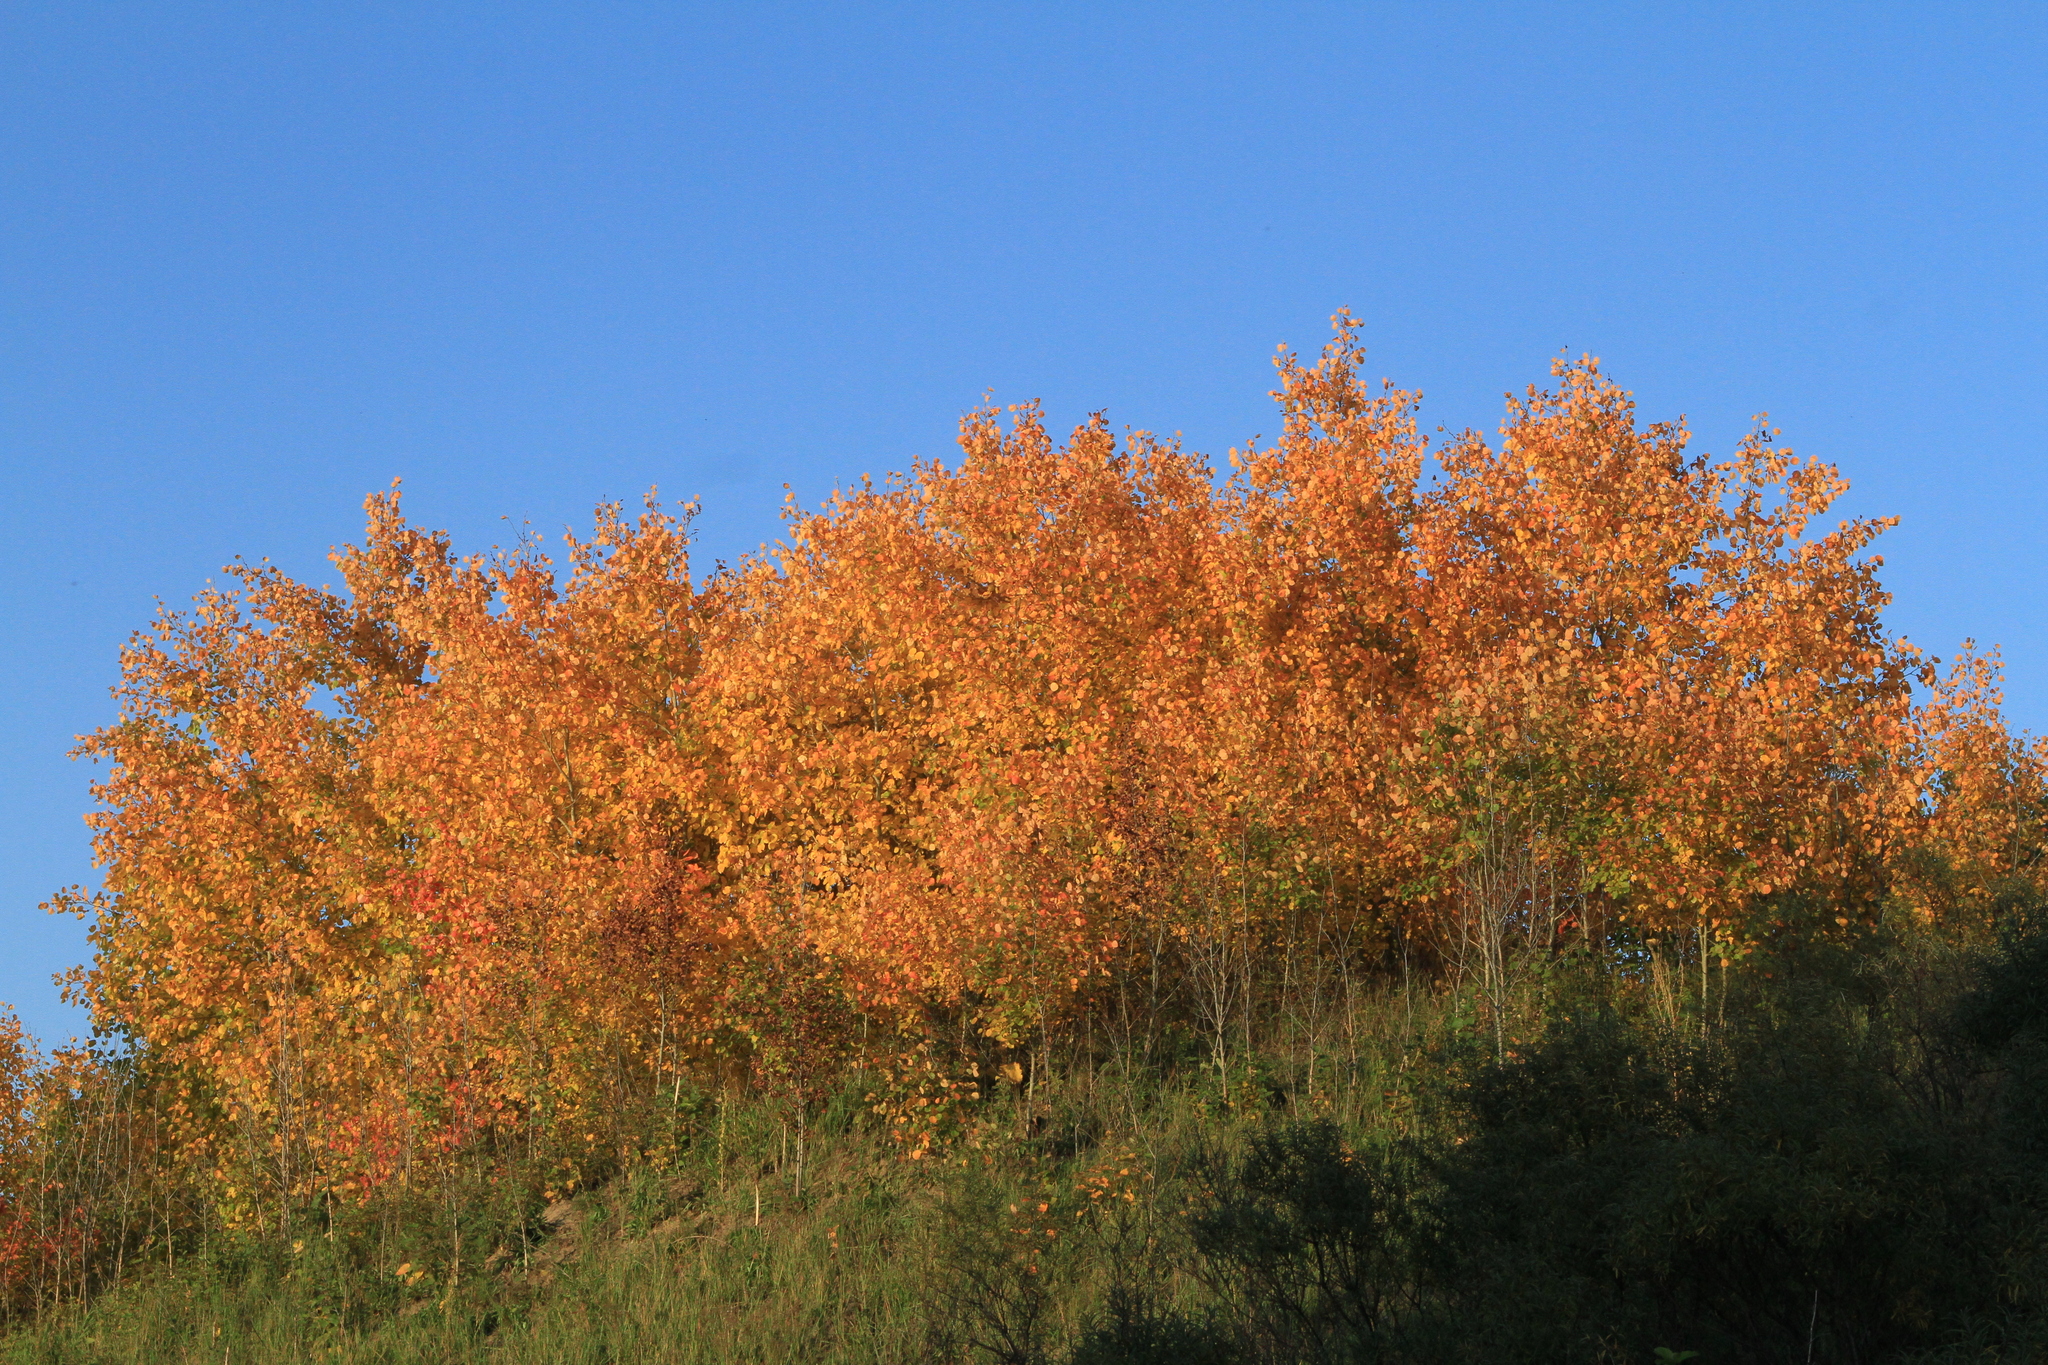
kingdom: Plantae
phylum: Tracheophyta
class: Magnoliopsida
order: Malpighiales
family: Salicaceae
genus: Populus
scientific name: Populus tremula
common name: European aspen
